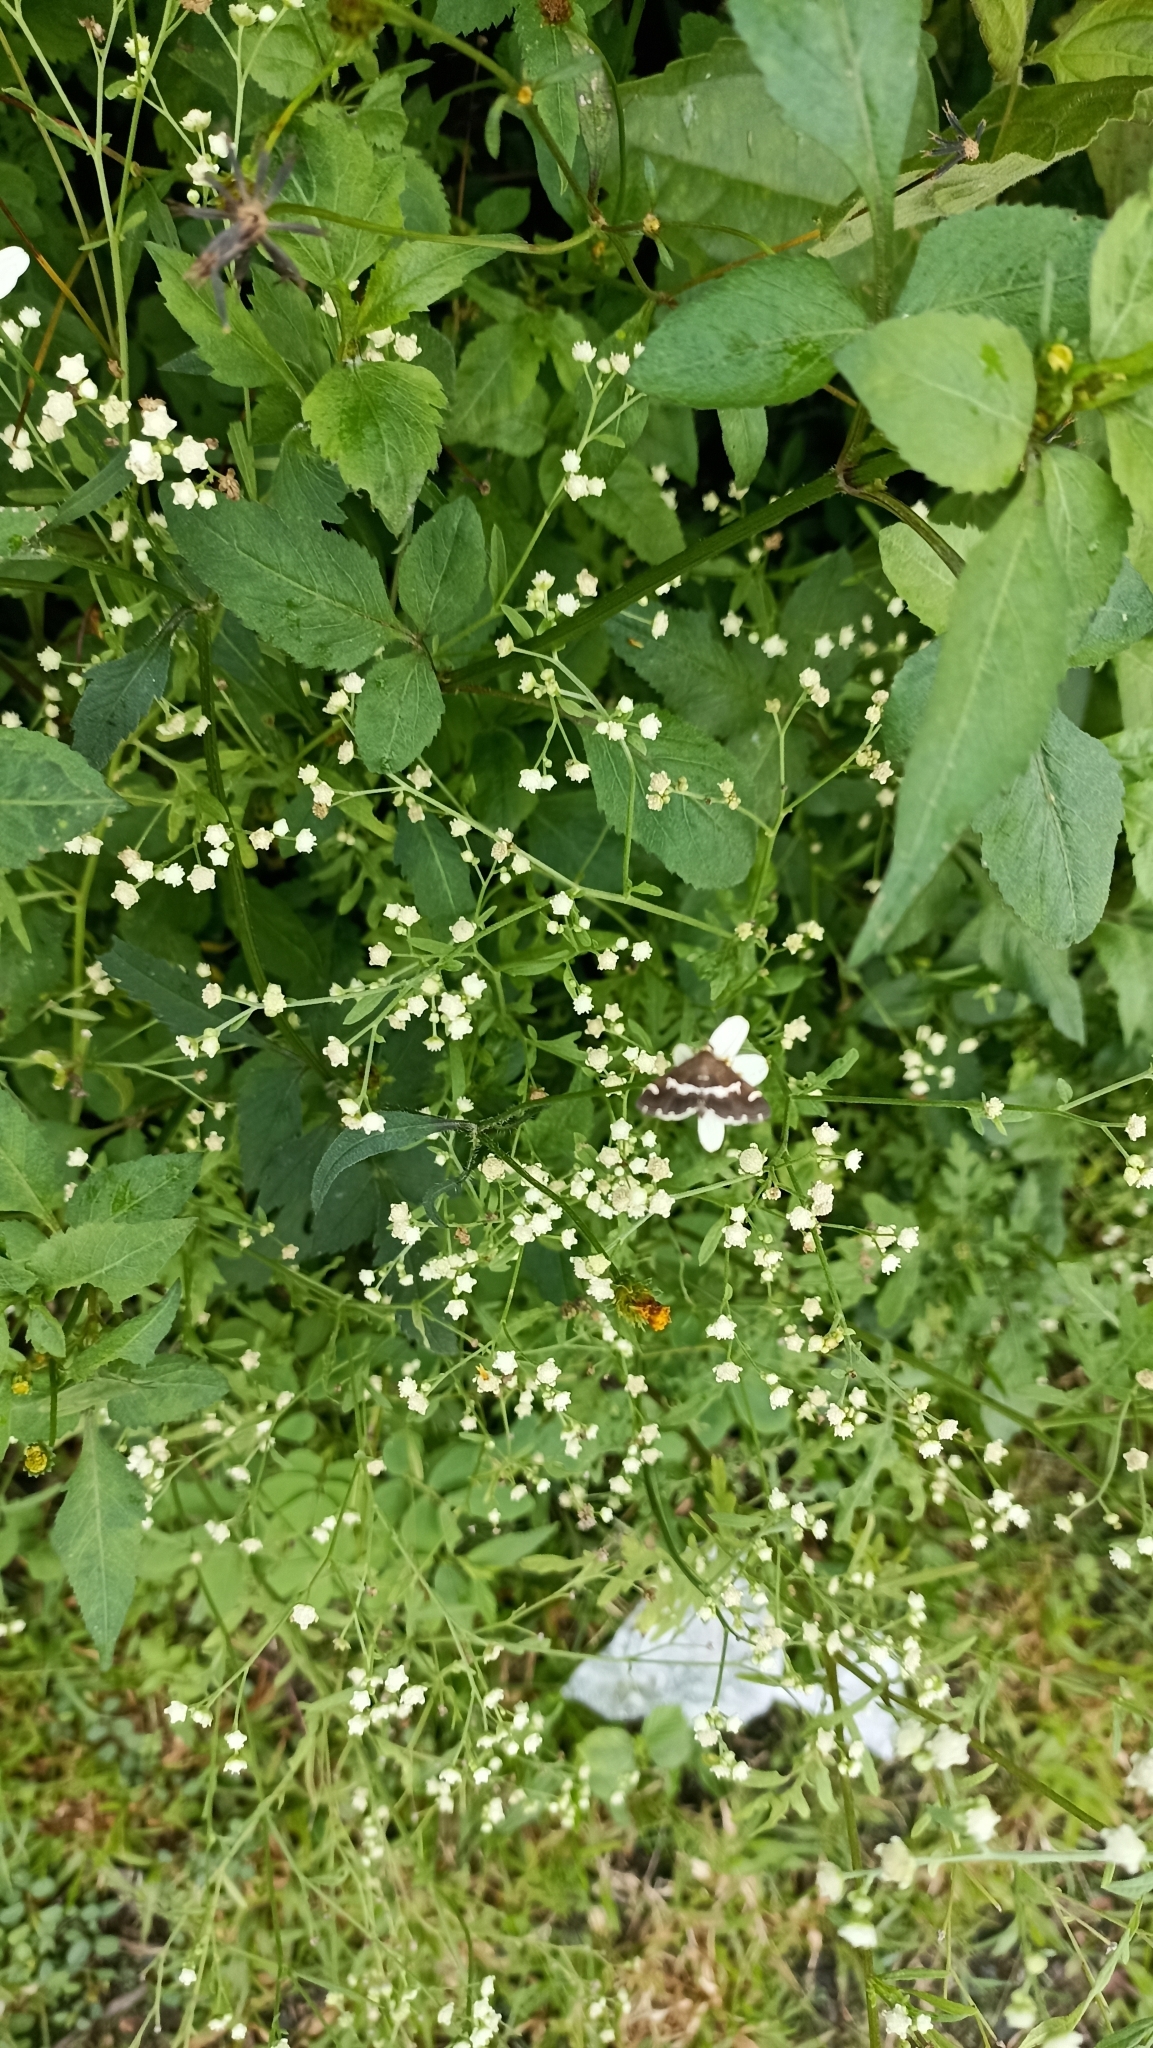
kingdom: Animalia
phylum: Arthropoda
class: Insecta
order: Lepidoptera
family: Crambidae
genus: Spoladea
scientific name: Spoladea recurvalis
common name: Beet webworm moth
